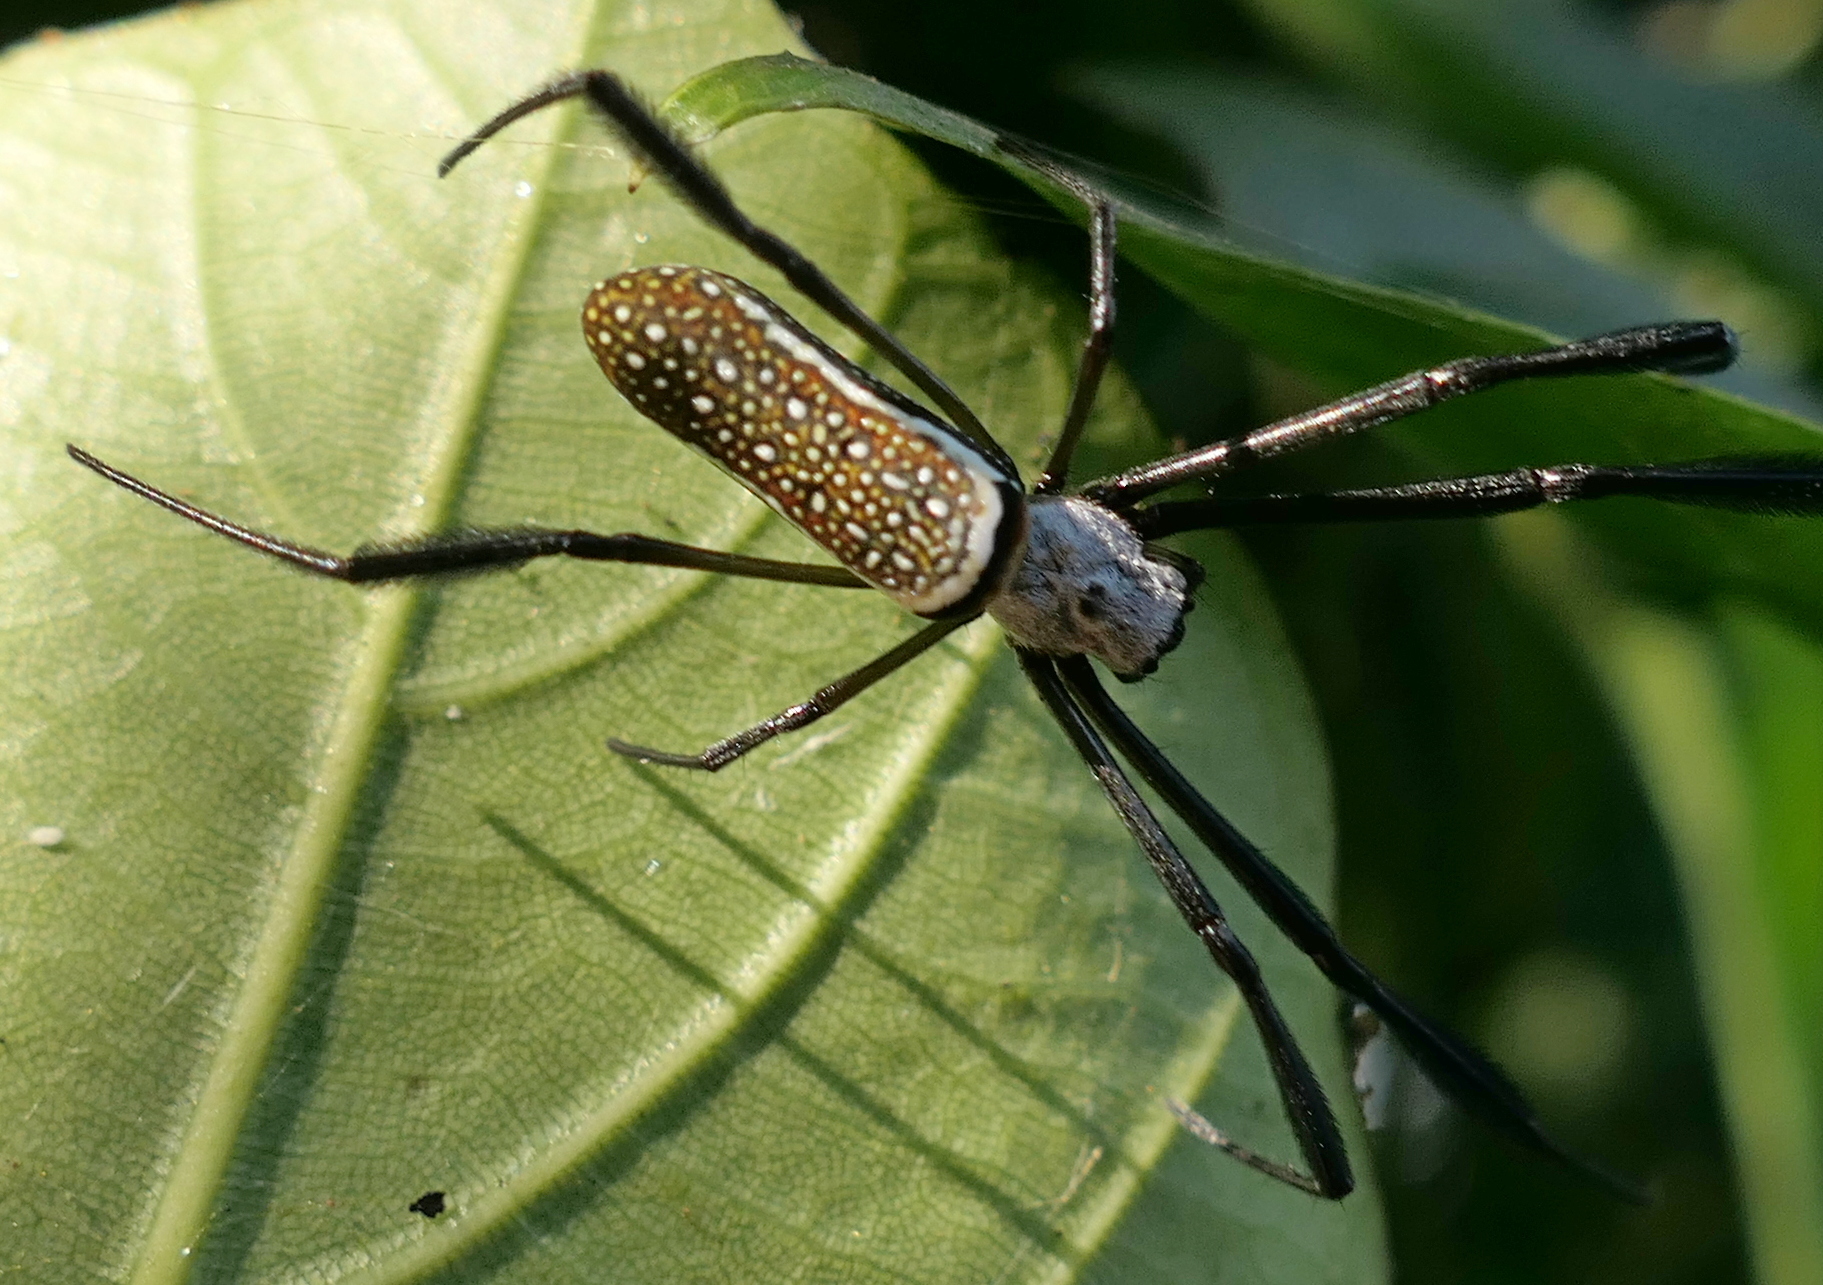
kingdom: Animalia
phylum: Arthropoda
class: Arachnida
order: Araneae
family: Araneidae
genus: Trichonephila
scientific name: Trichonephila clavipes
